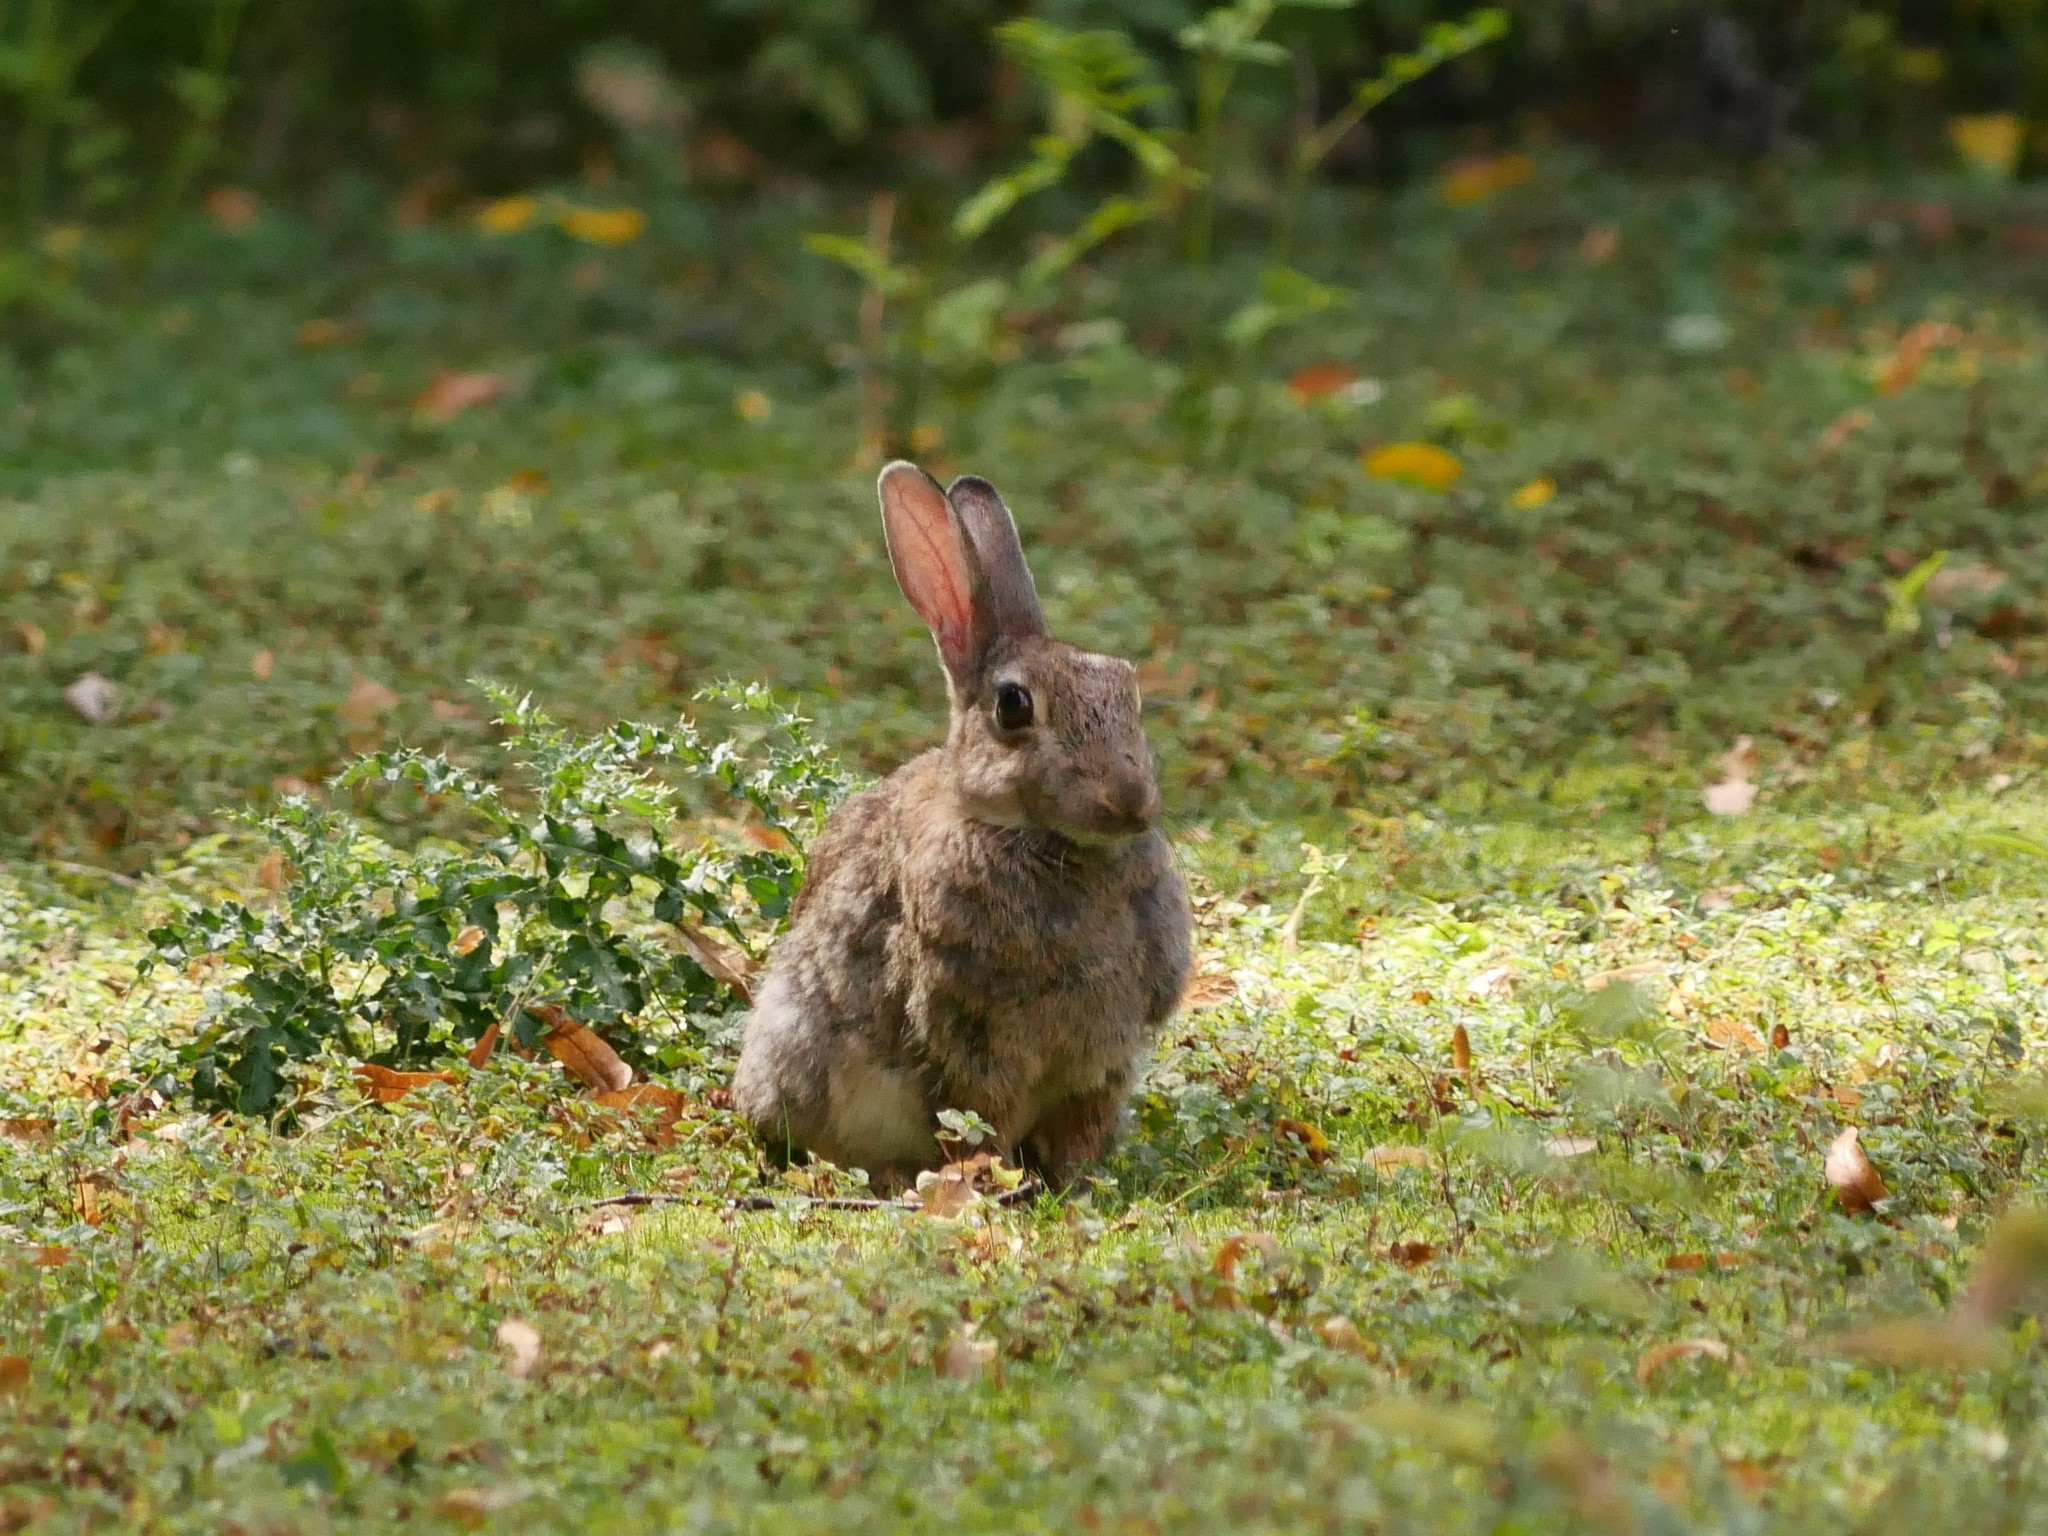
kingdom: Animalia
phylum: Chordata
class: Mammalia
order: Lagomorpha
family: Leporidae
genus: Oryctolagus
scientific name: Oryctolagus cuniculus
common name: European rabbit
